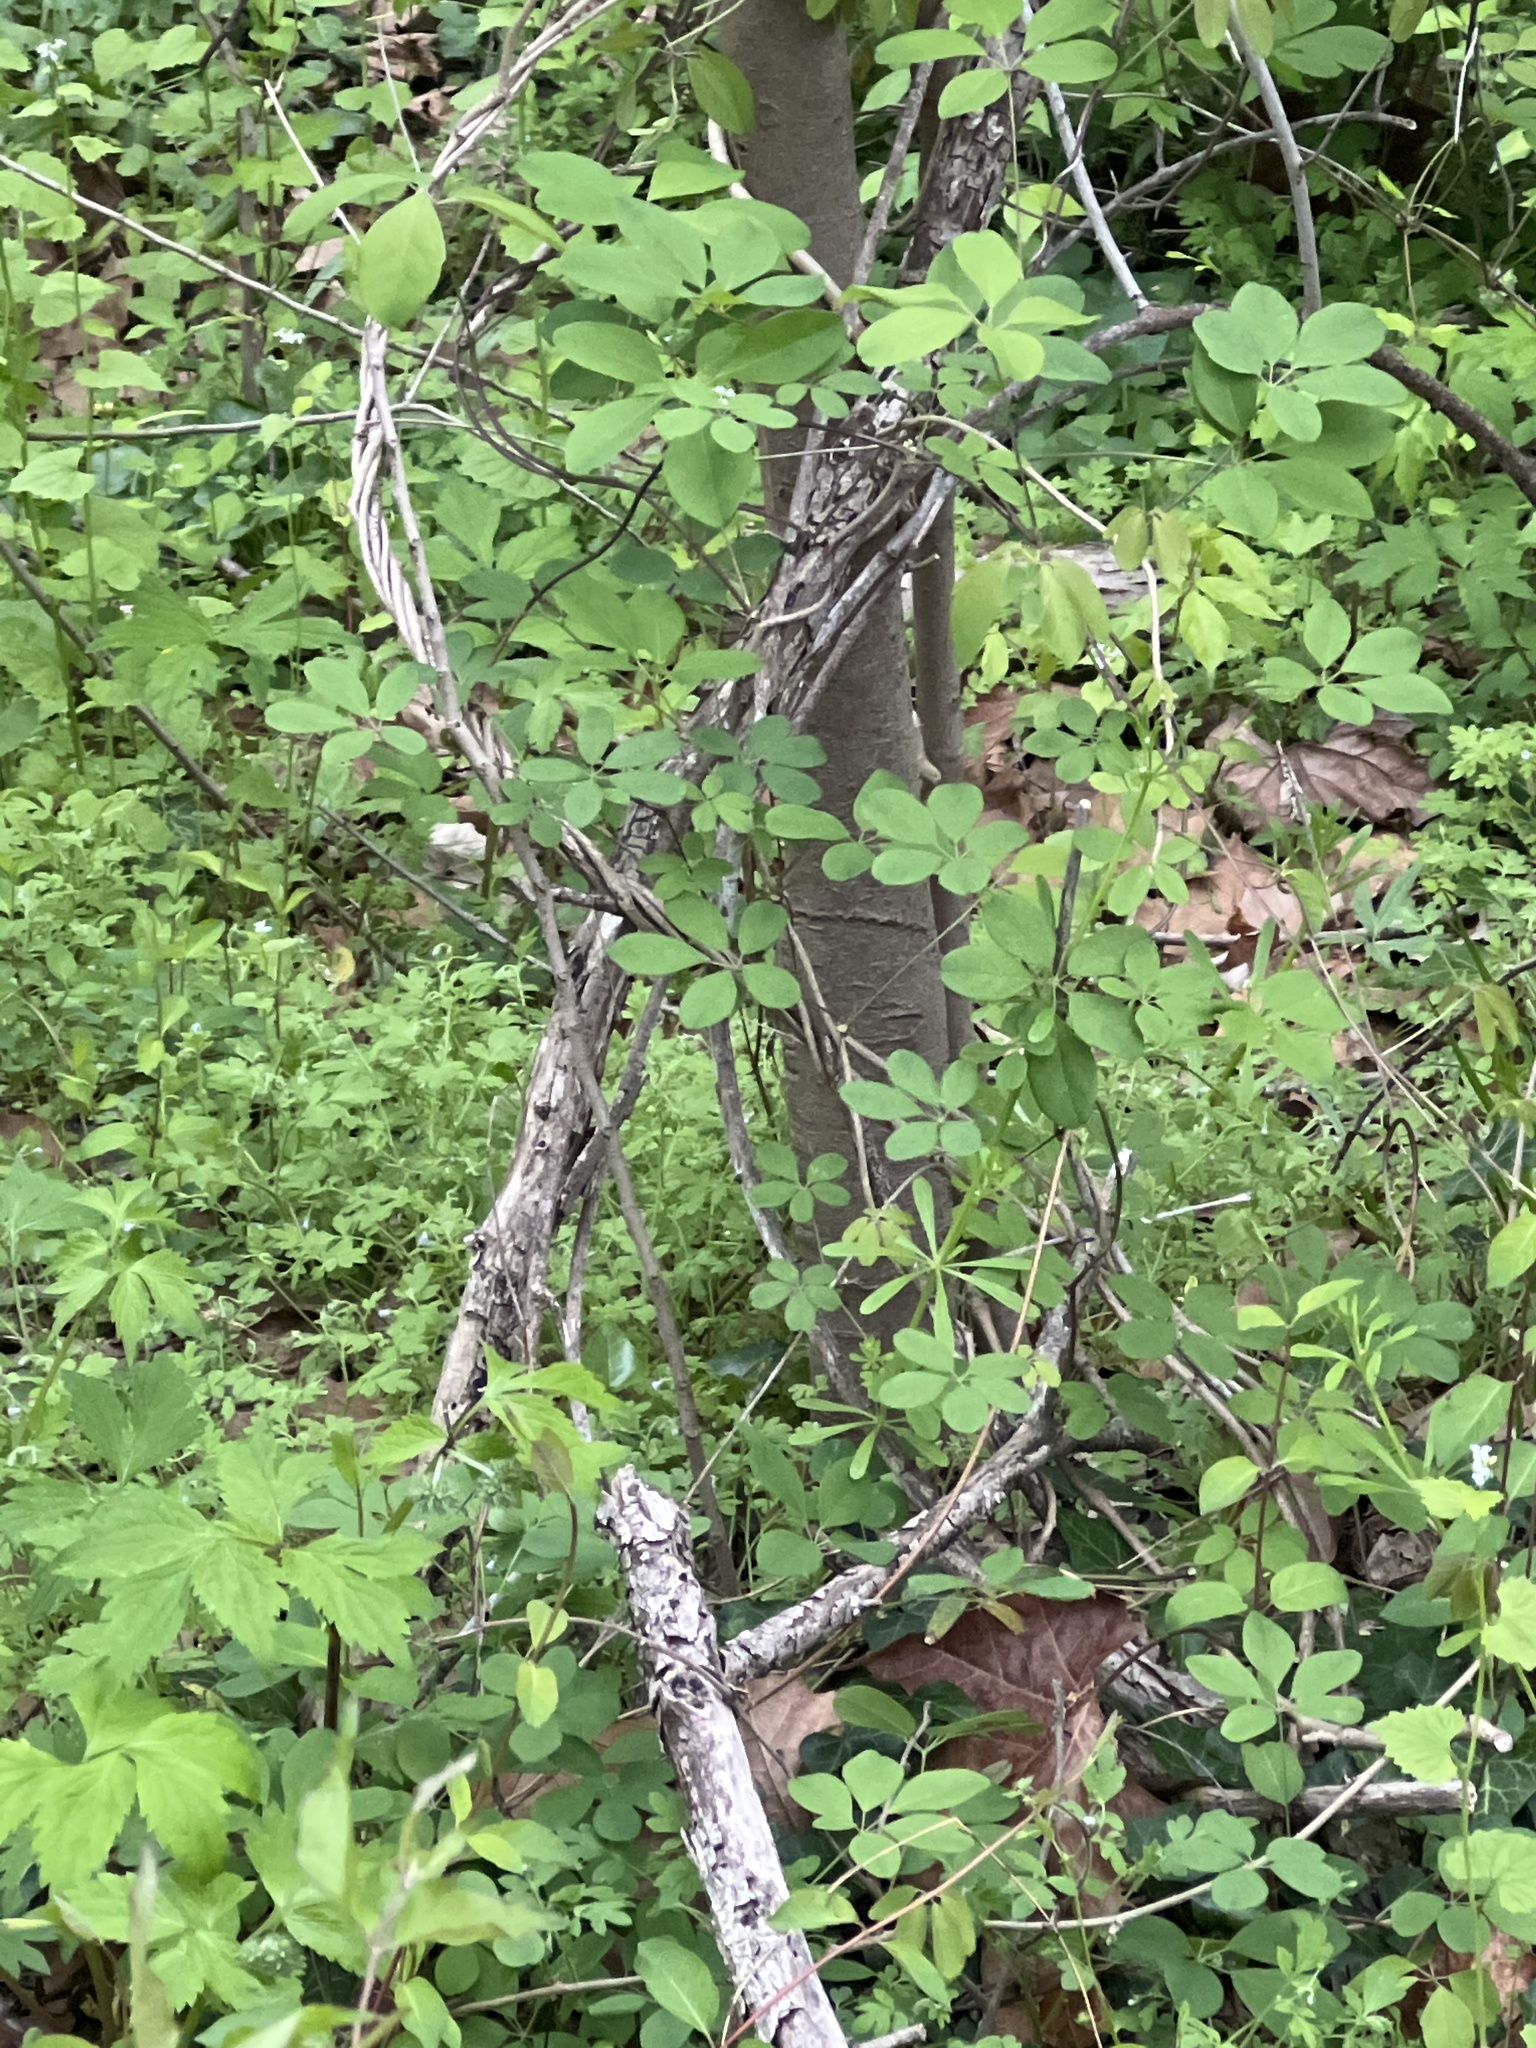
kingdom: Plantae
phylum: Tracheophyta
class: Magnoliopsida
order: Ranunculales
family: Lardizabalaceae
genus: Akebia
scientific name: Akebia quinata
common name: Five-leaf akebia
